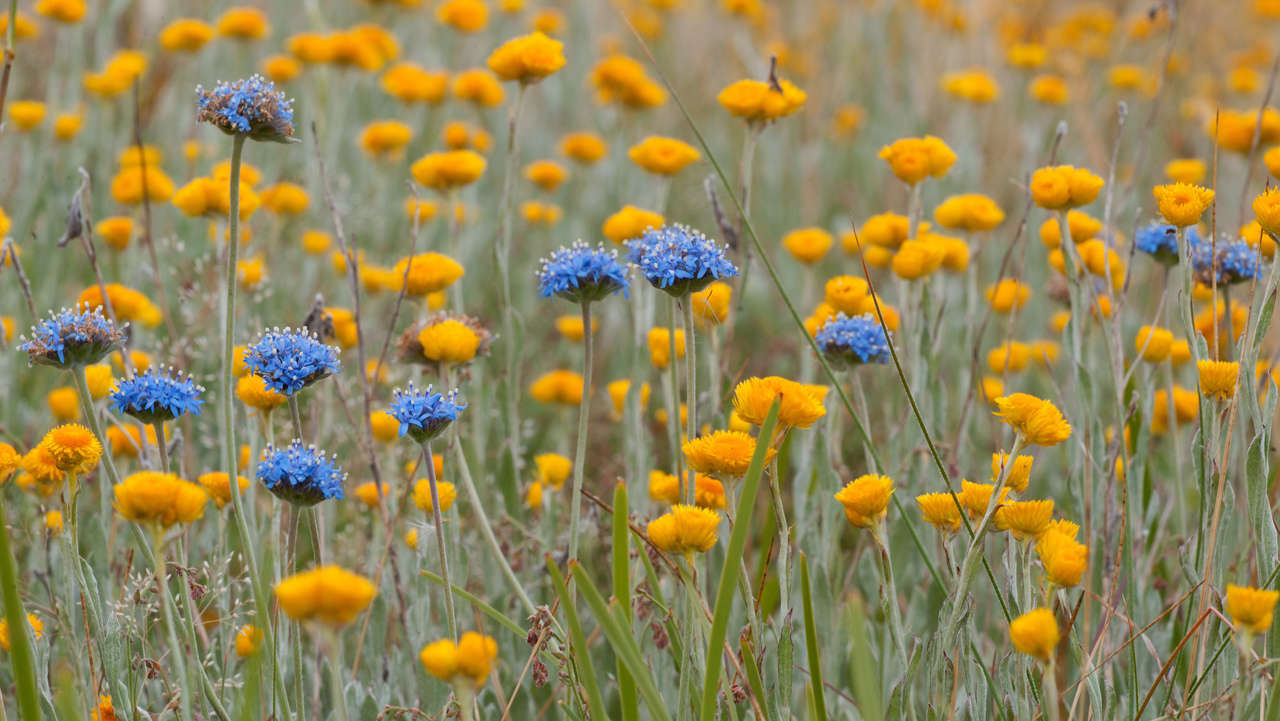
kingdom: Plantae
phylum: Tracheophyta
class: Magnoliopsida
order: Asterales
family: Asteraceae
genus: Chrysocephalum
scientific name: Chrysocephalum apiculatum
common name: Common everlasting
